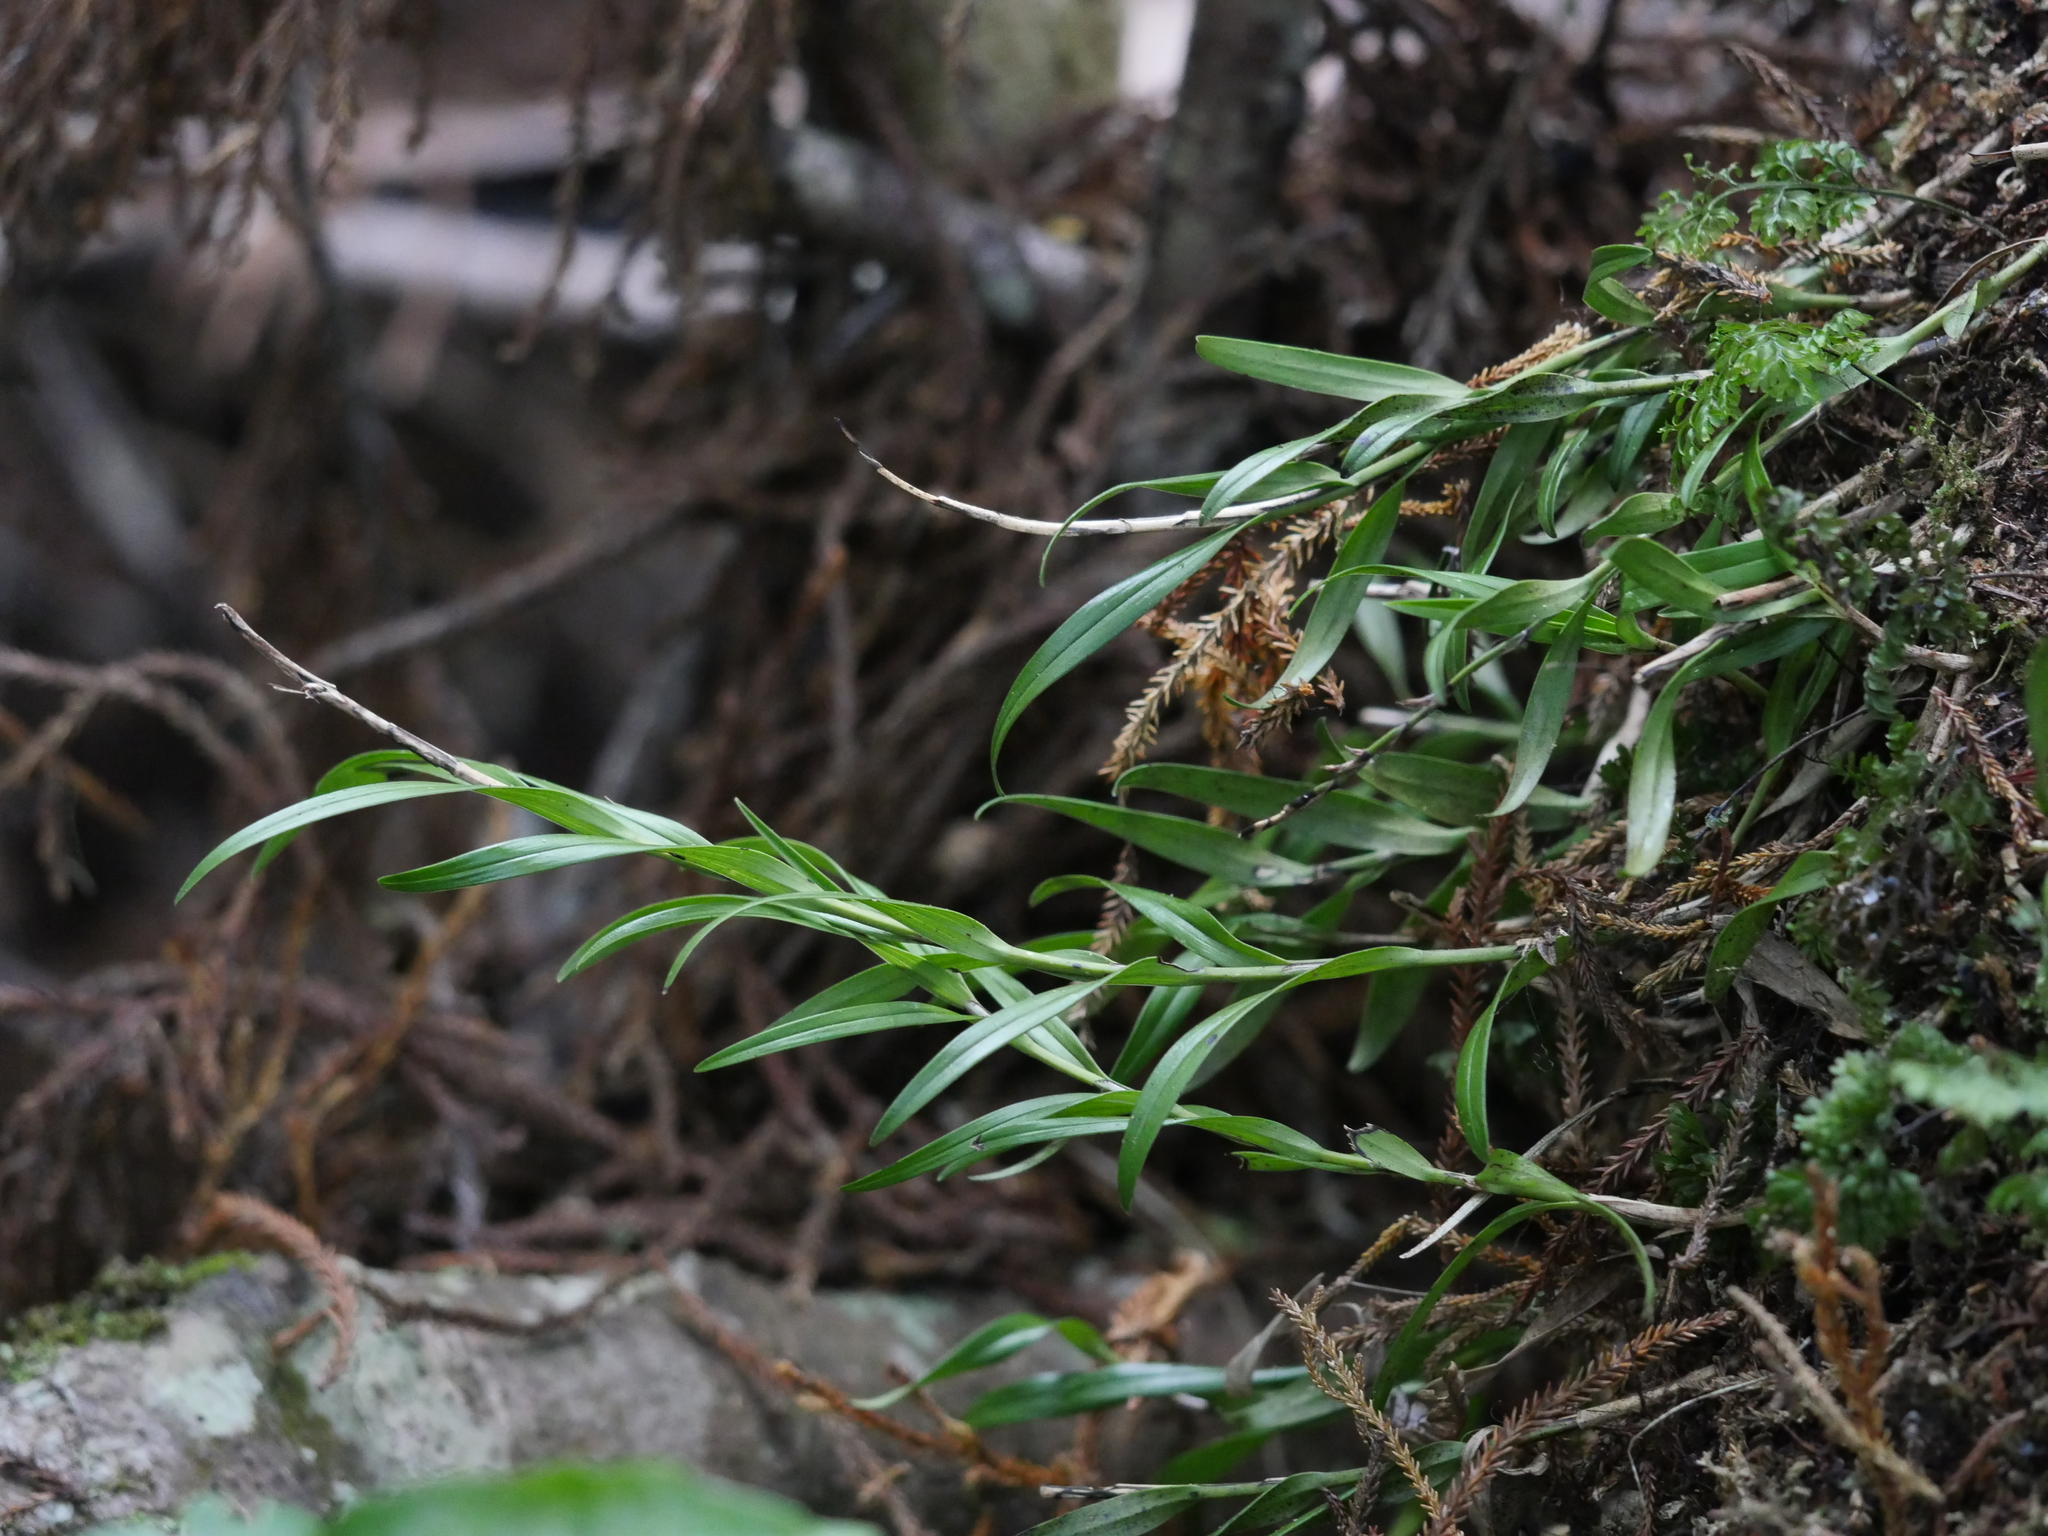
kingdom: Plantae
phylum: Tracheophyta
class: Liliopsida
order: Asparagales
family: Orchidaceae
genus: Earina
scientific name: Earina autumnalis
